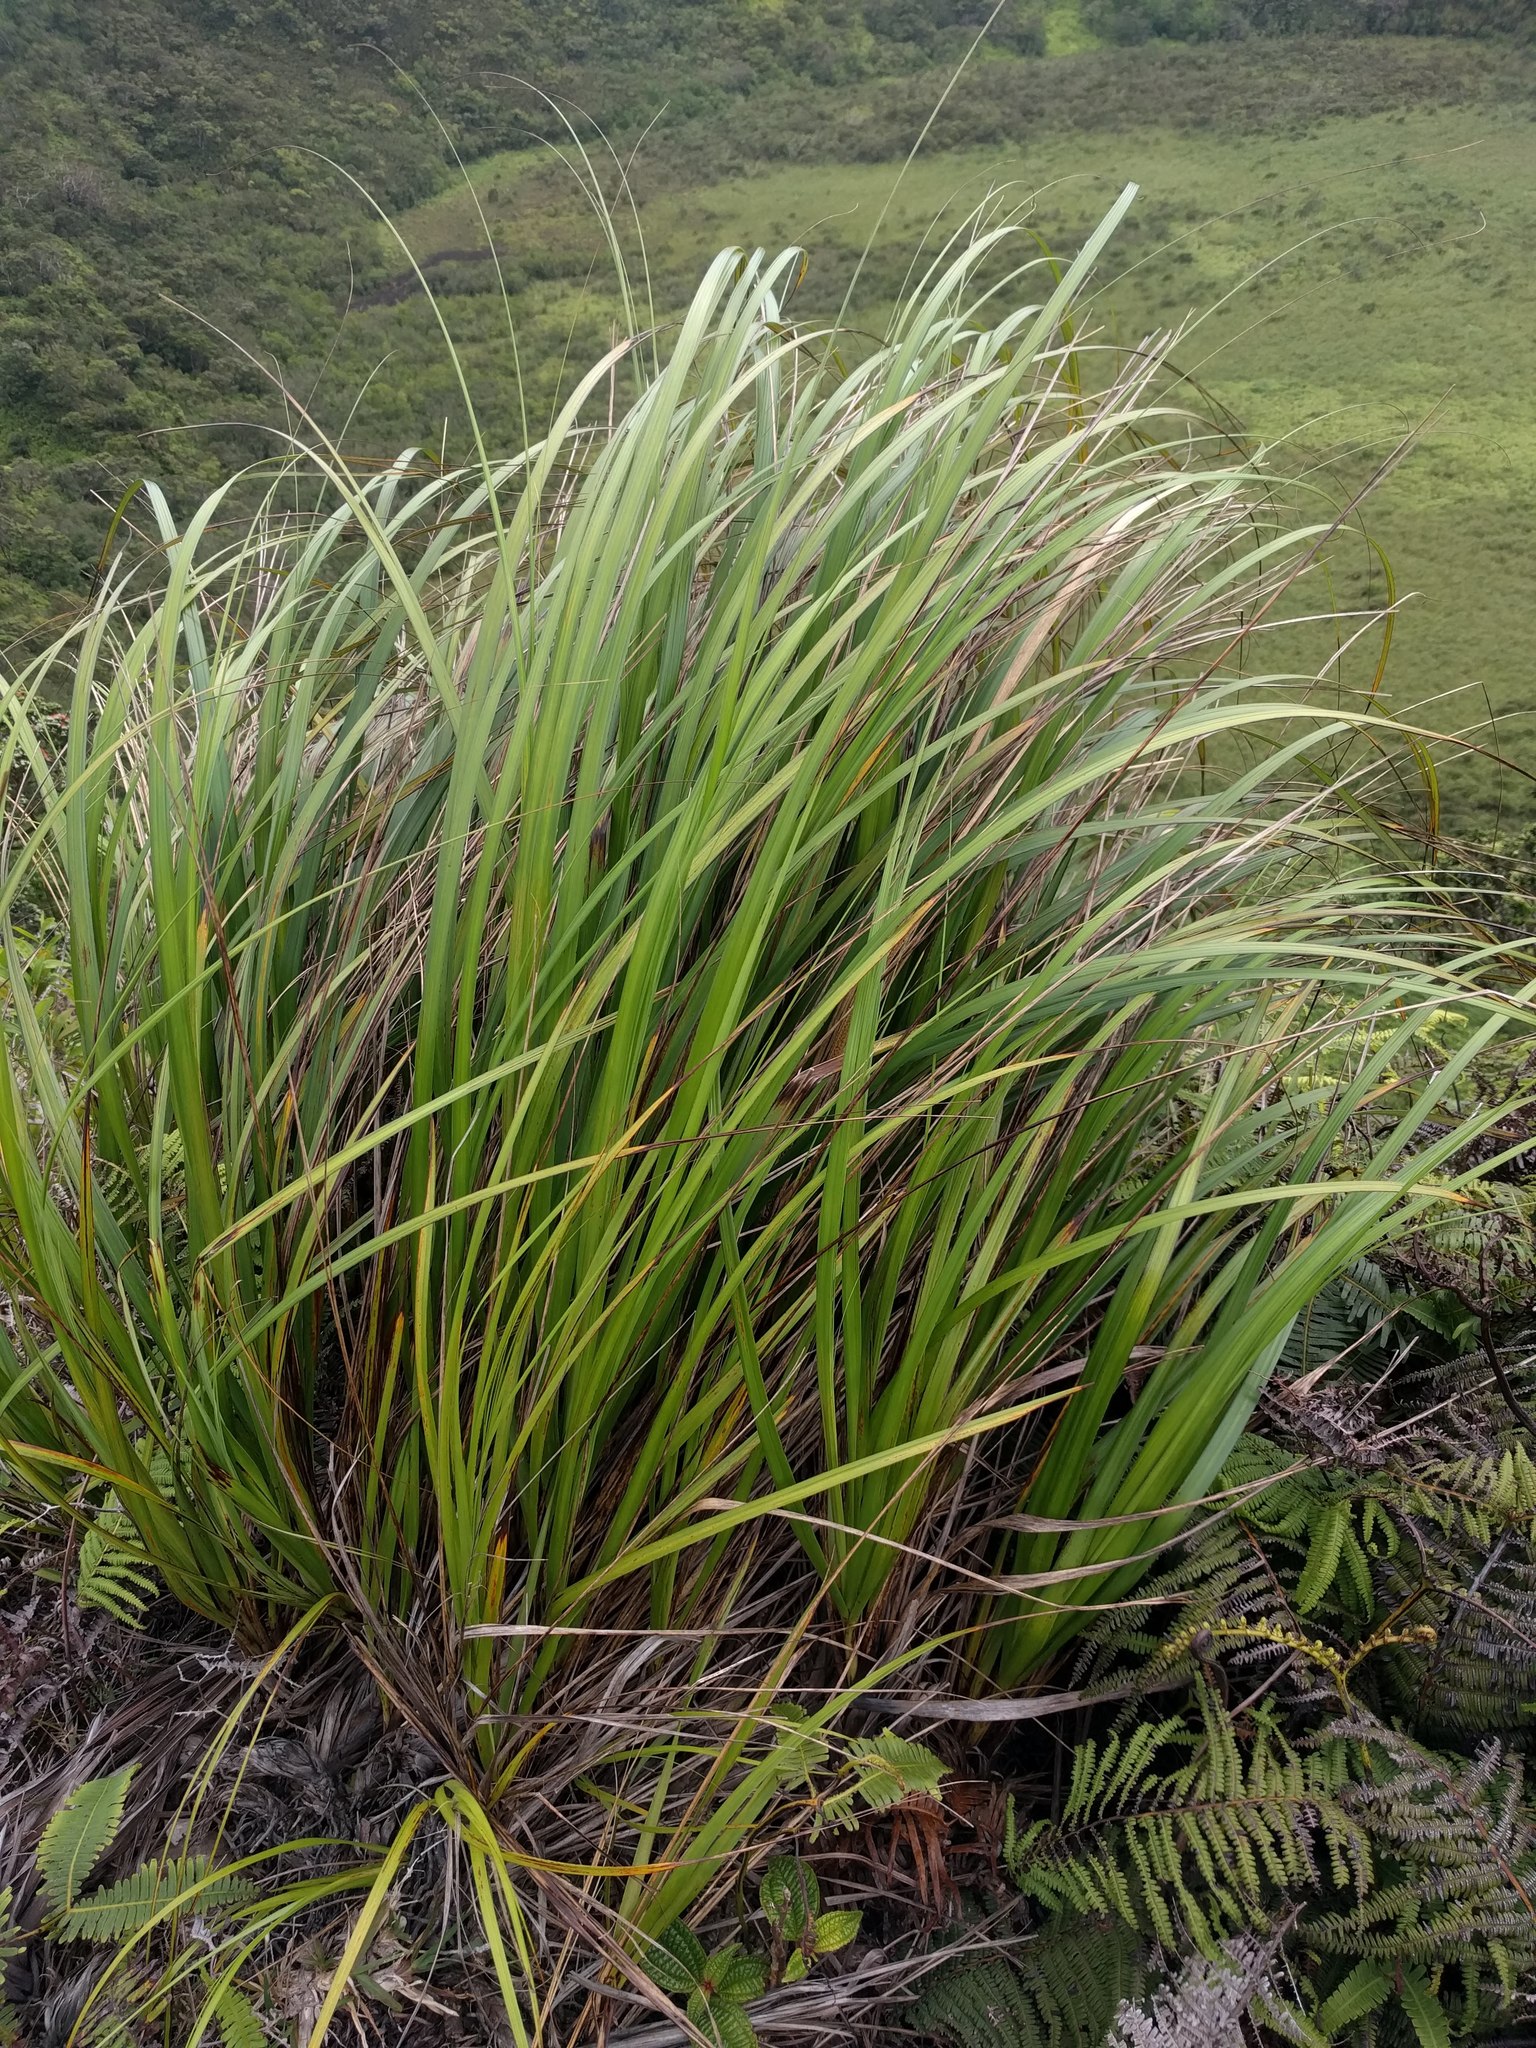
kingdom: Plantae
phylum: Tracheophyta
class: Liliopsida
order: Poales
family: Cyperaceae
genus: Gahnia
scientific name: Gahnia beecheyi
